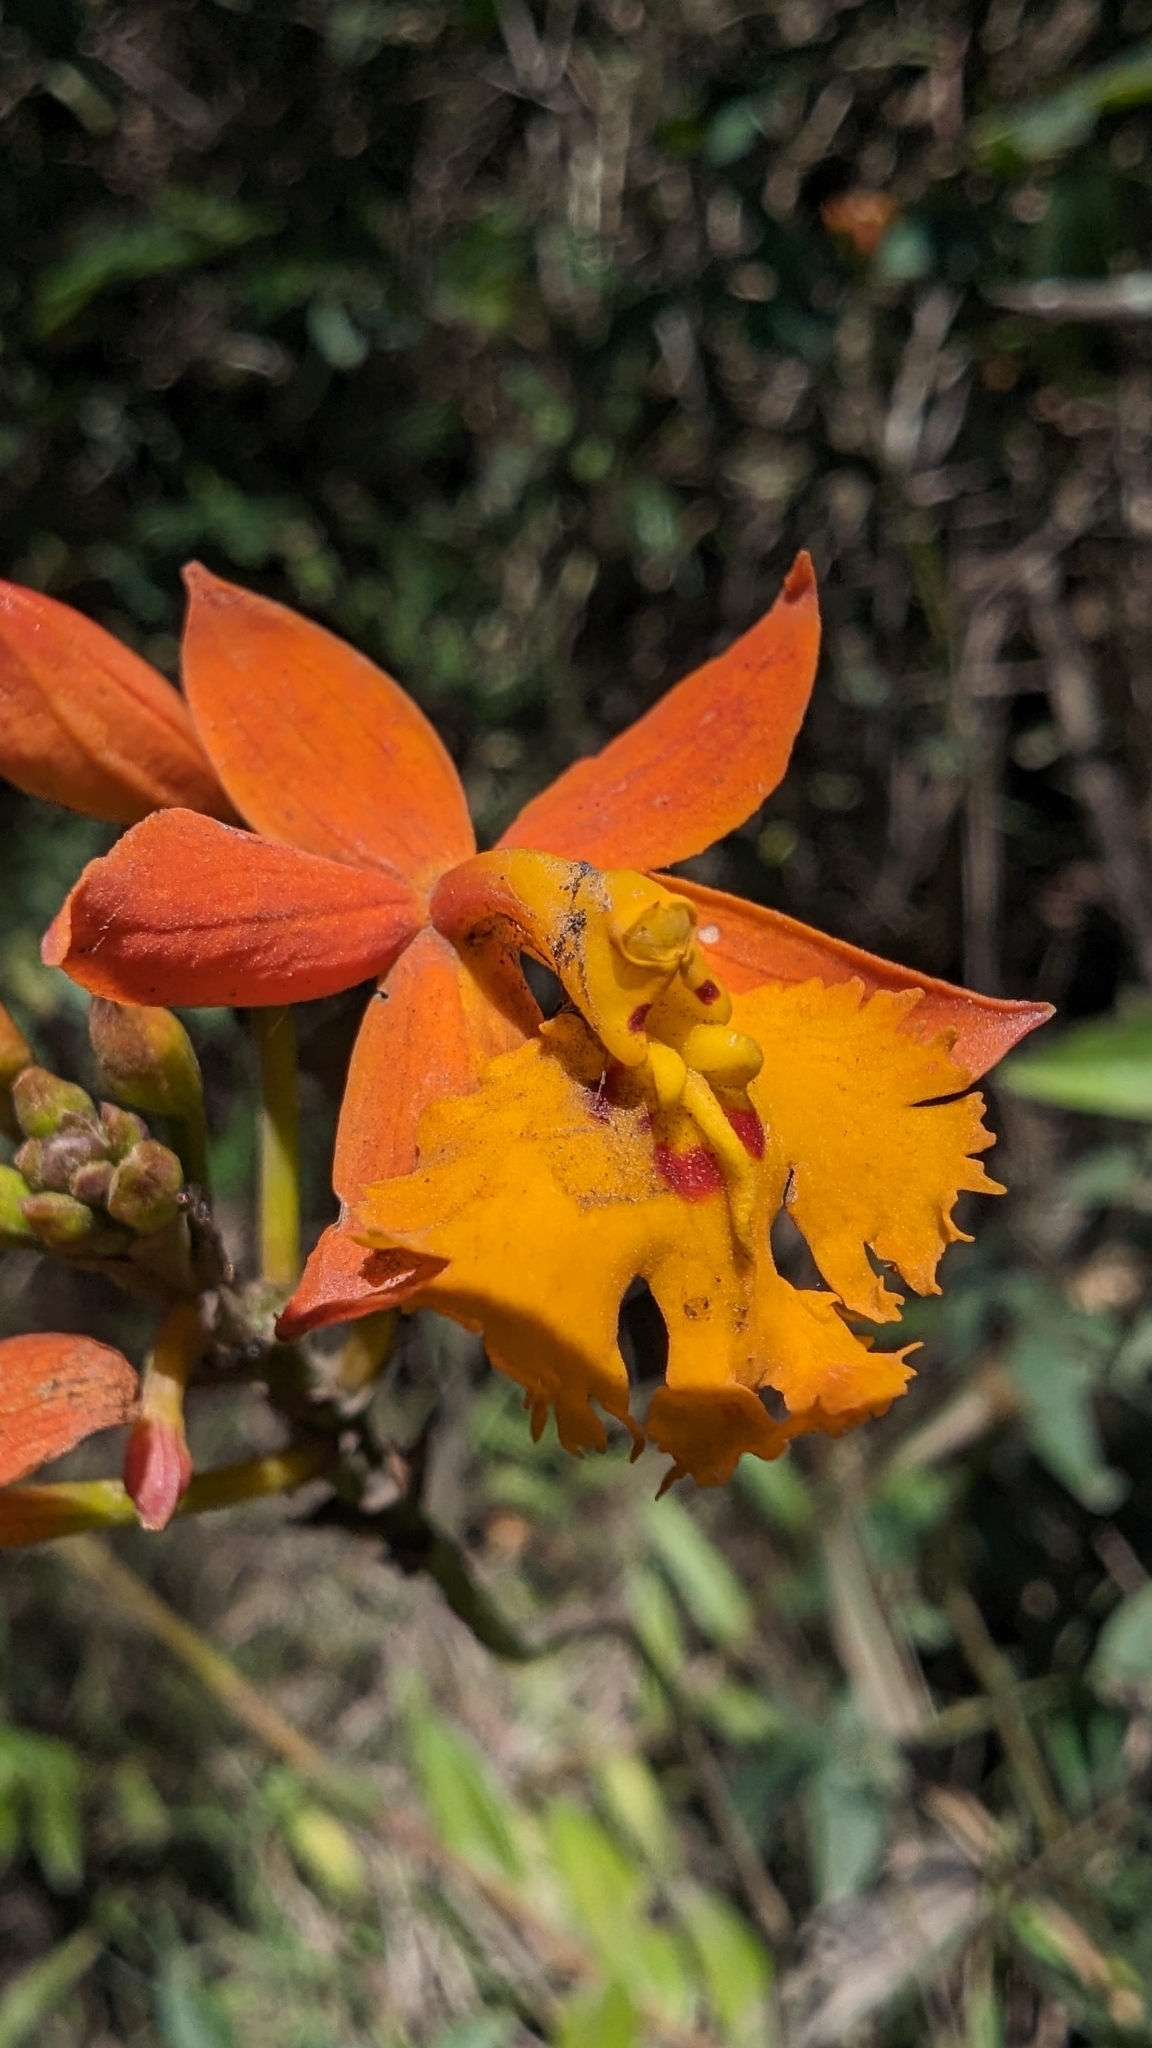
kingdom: Plantae
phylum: Tracheophyta
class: Liliopsida
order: Asparagales
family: Orchidaceae
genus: Epidendrum
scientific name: Epidendrum radicans
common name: Fire star orchid
